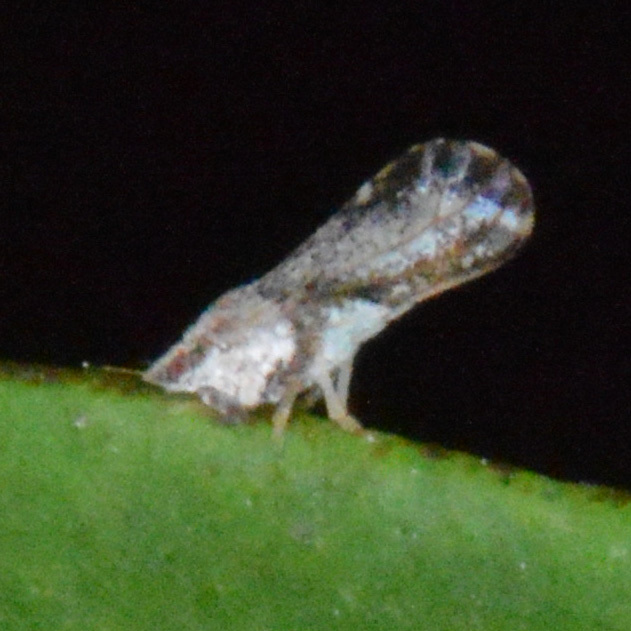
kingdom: Animalia
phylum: Arthropoda
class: Insecta
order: Hemiptera
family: Liviidae
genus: Diaphorina
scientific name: Diaphorina citri
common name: Asian citrus psyllid
